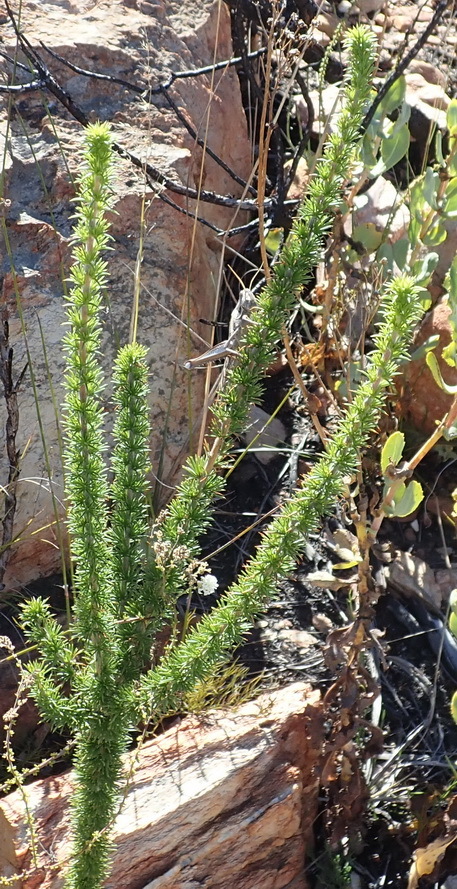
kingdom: Plantae
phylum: Tracheophyta
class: Magnoliopsida
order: Fabales
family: Fabaceae
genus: Aspalathus
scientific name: Aspalathus sceptrumaureum
